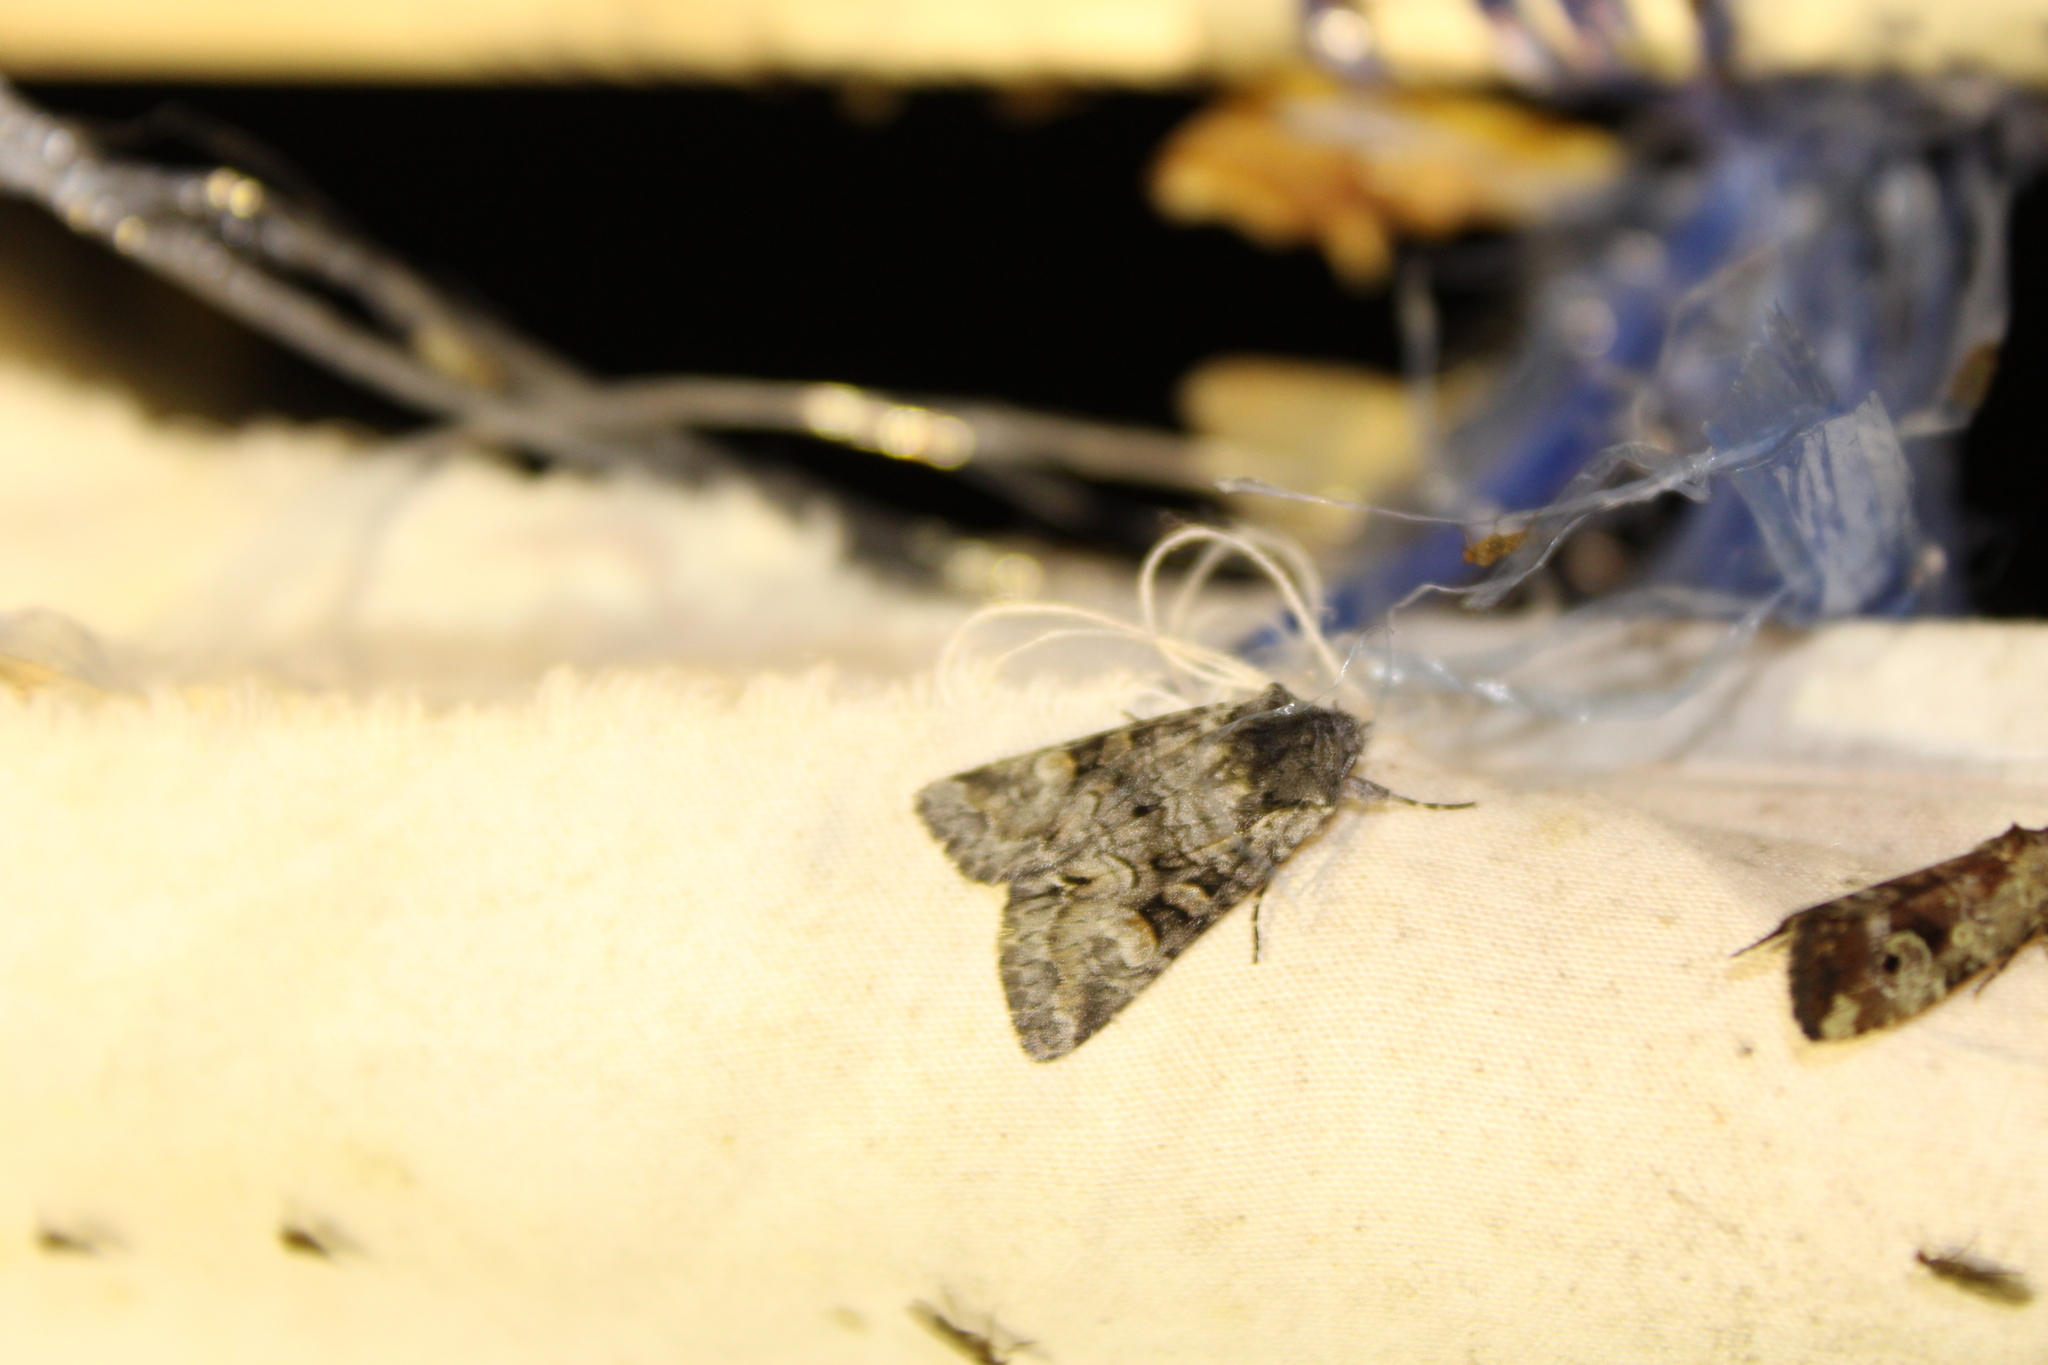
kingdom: Animalia
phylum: Arthropoda
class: Insecta
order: Lepidoptera
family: Noctuidae
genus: Lacinipolia
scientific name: Lacinipolia anguina
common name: Snaky arches moth
